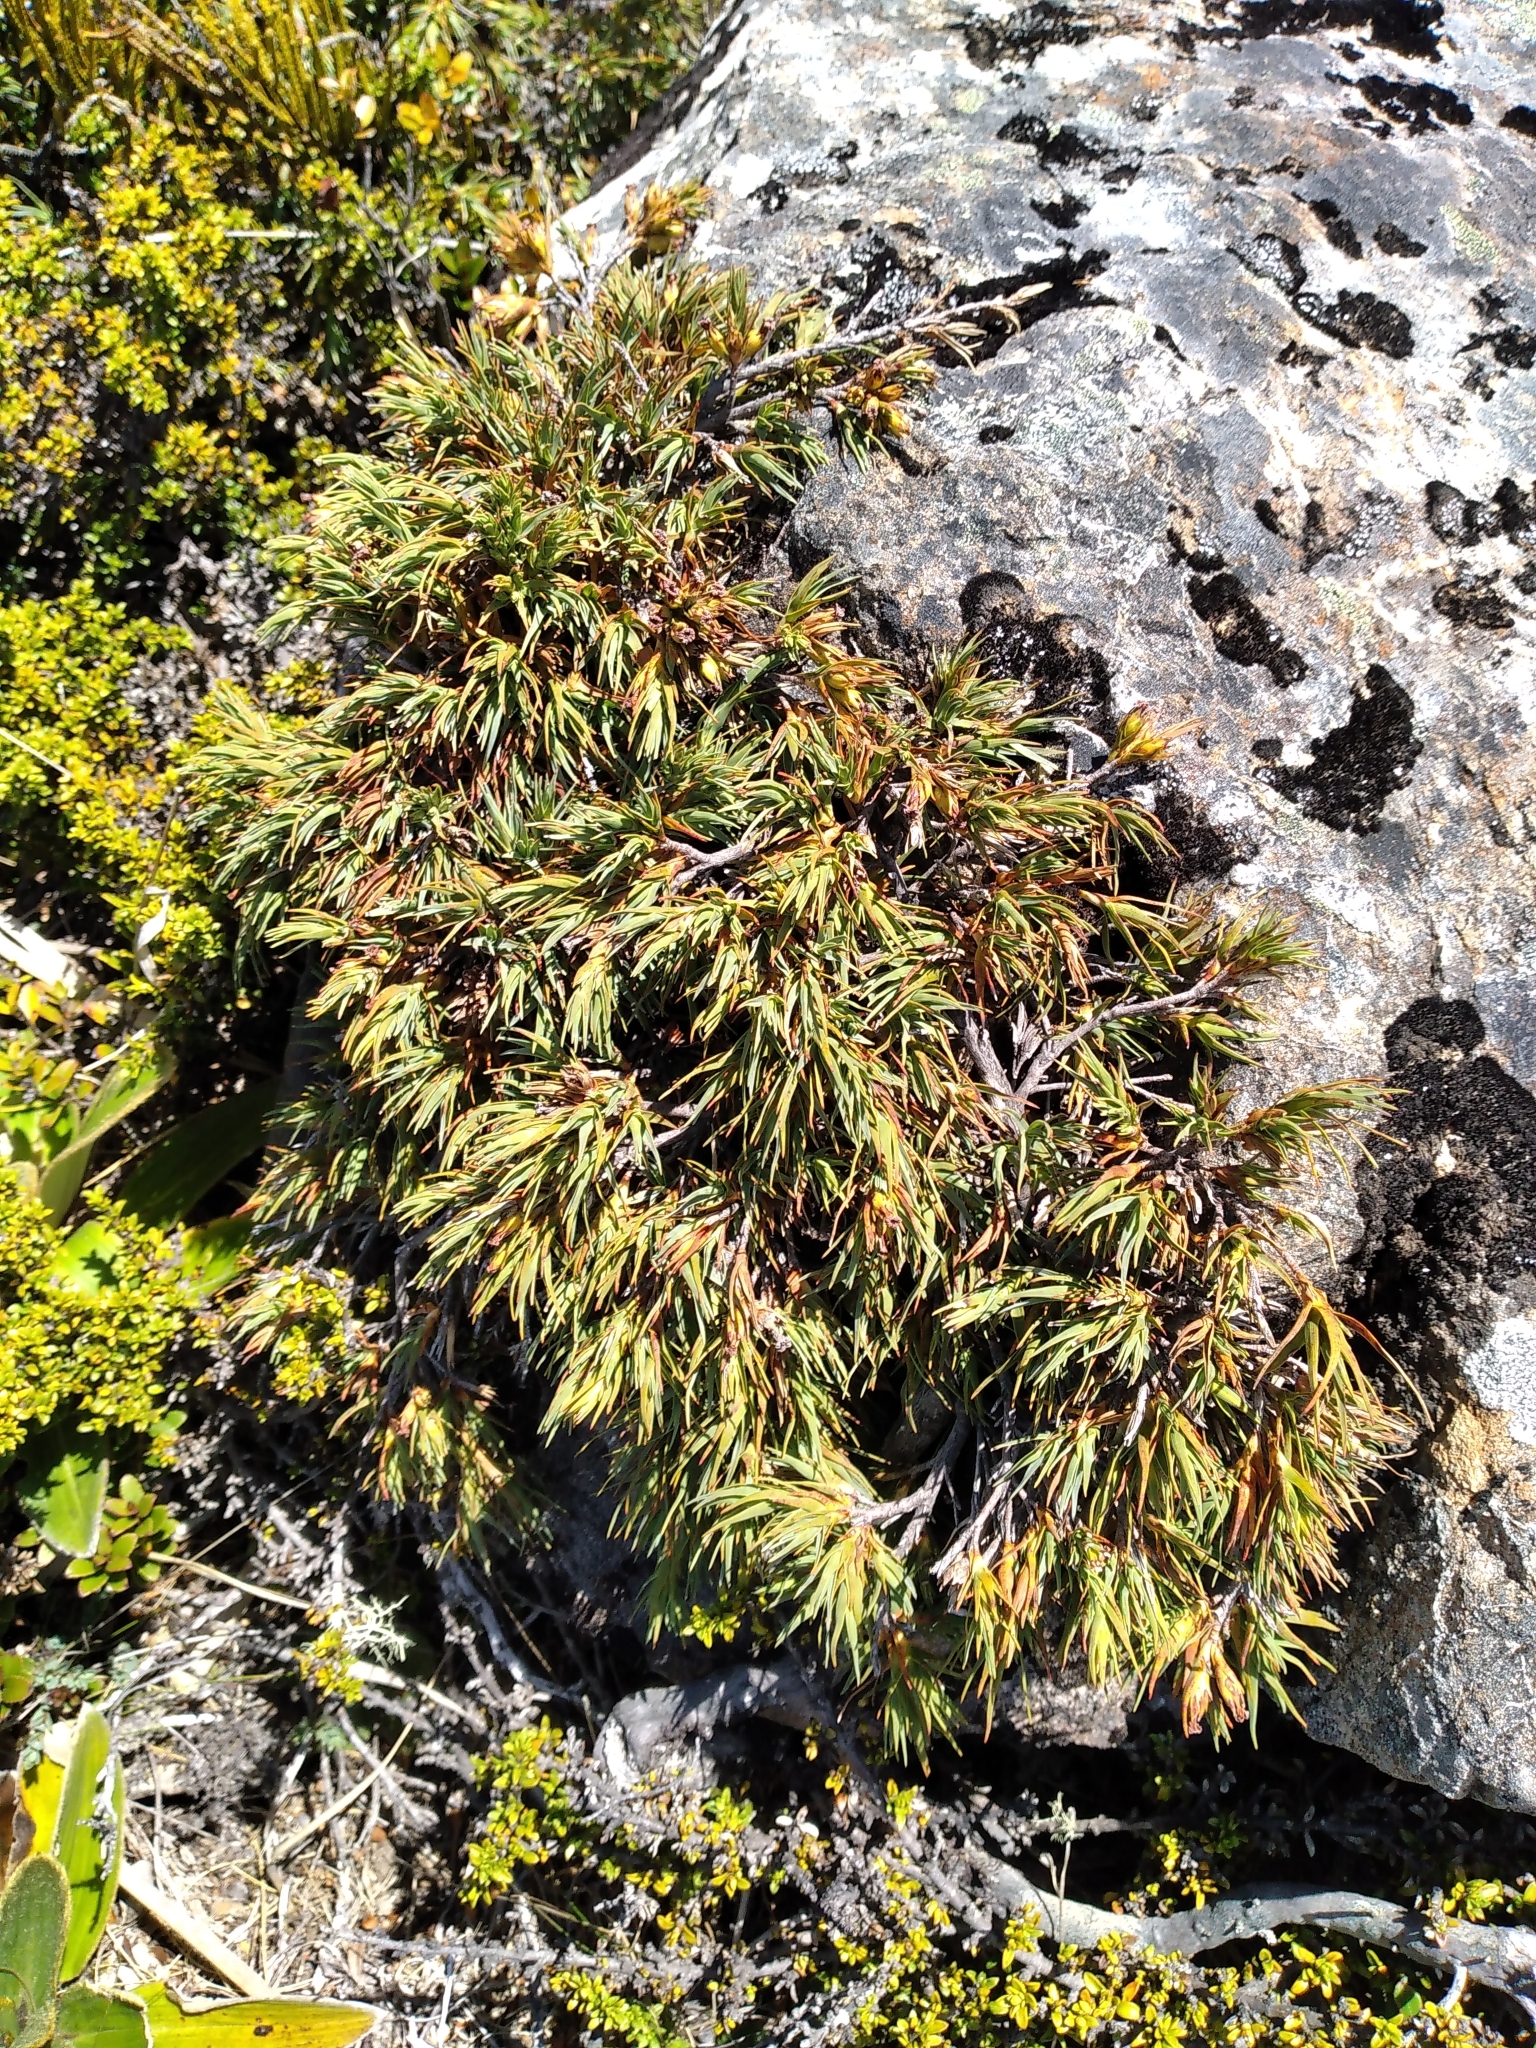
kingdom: Plantae
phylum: Tracheophyta
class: Magnoliopsida
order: Ericales
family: Ericaceae
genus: Dracophyllum
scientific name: Dracophyllum kirkii
